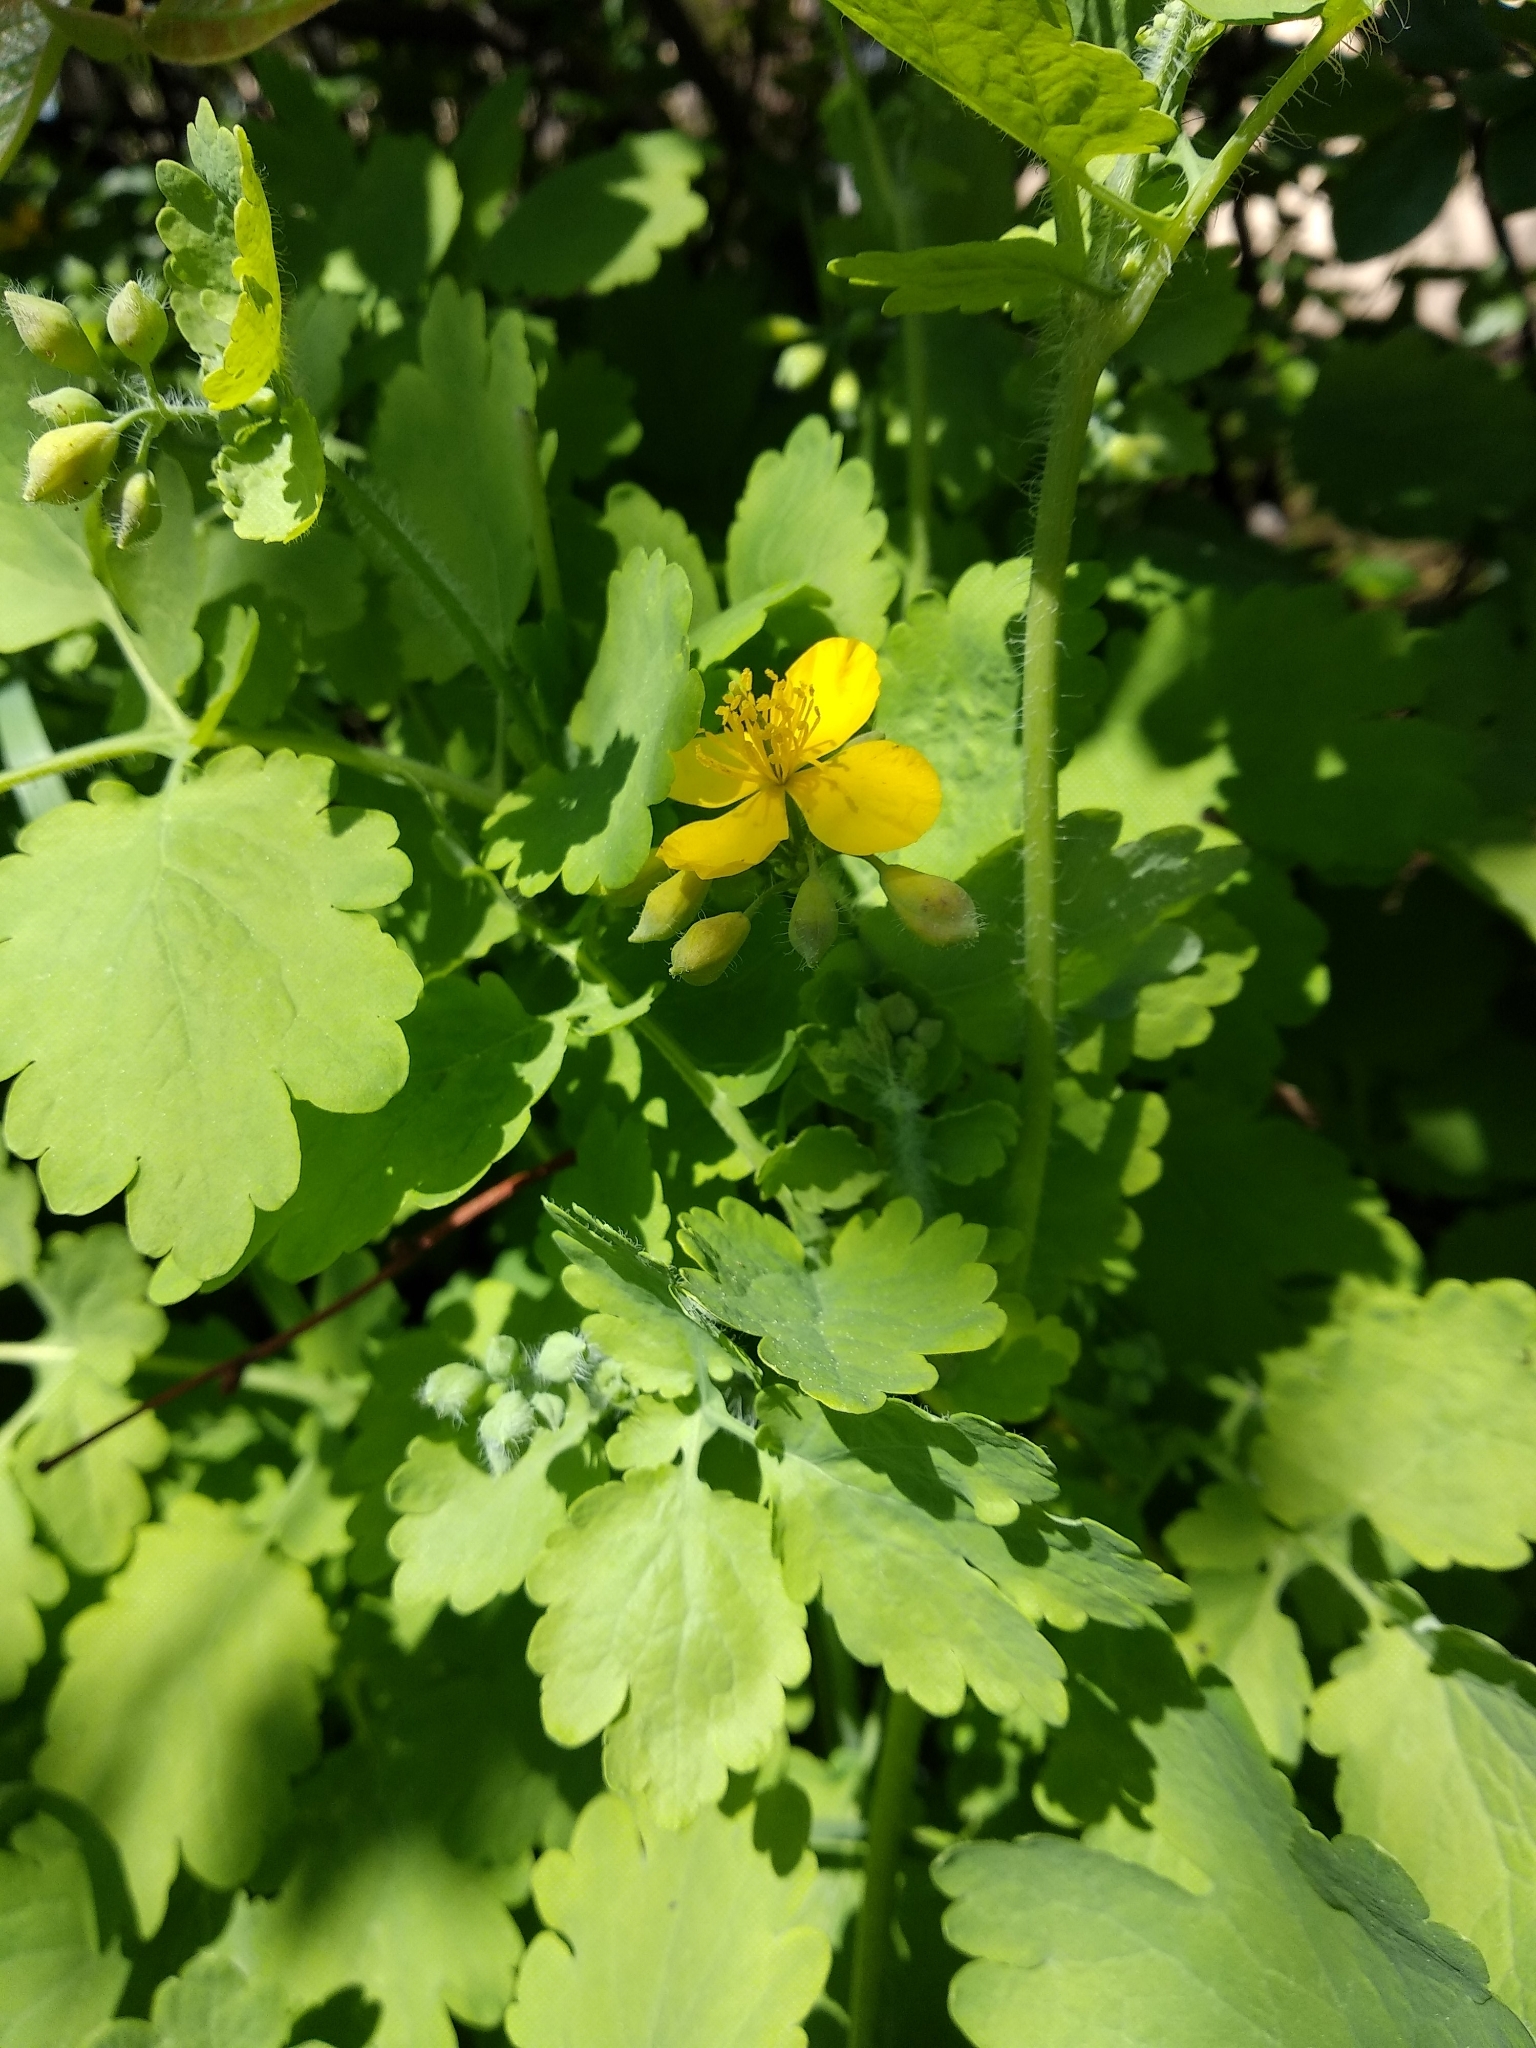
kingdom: Plantae
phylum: Tracheophyta
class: Magnoliopsida
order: Ranunculales
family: Papaveraceae
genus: Chelidonium
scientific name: Chelidonium majus
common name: Greater celandine
